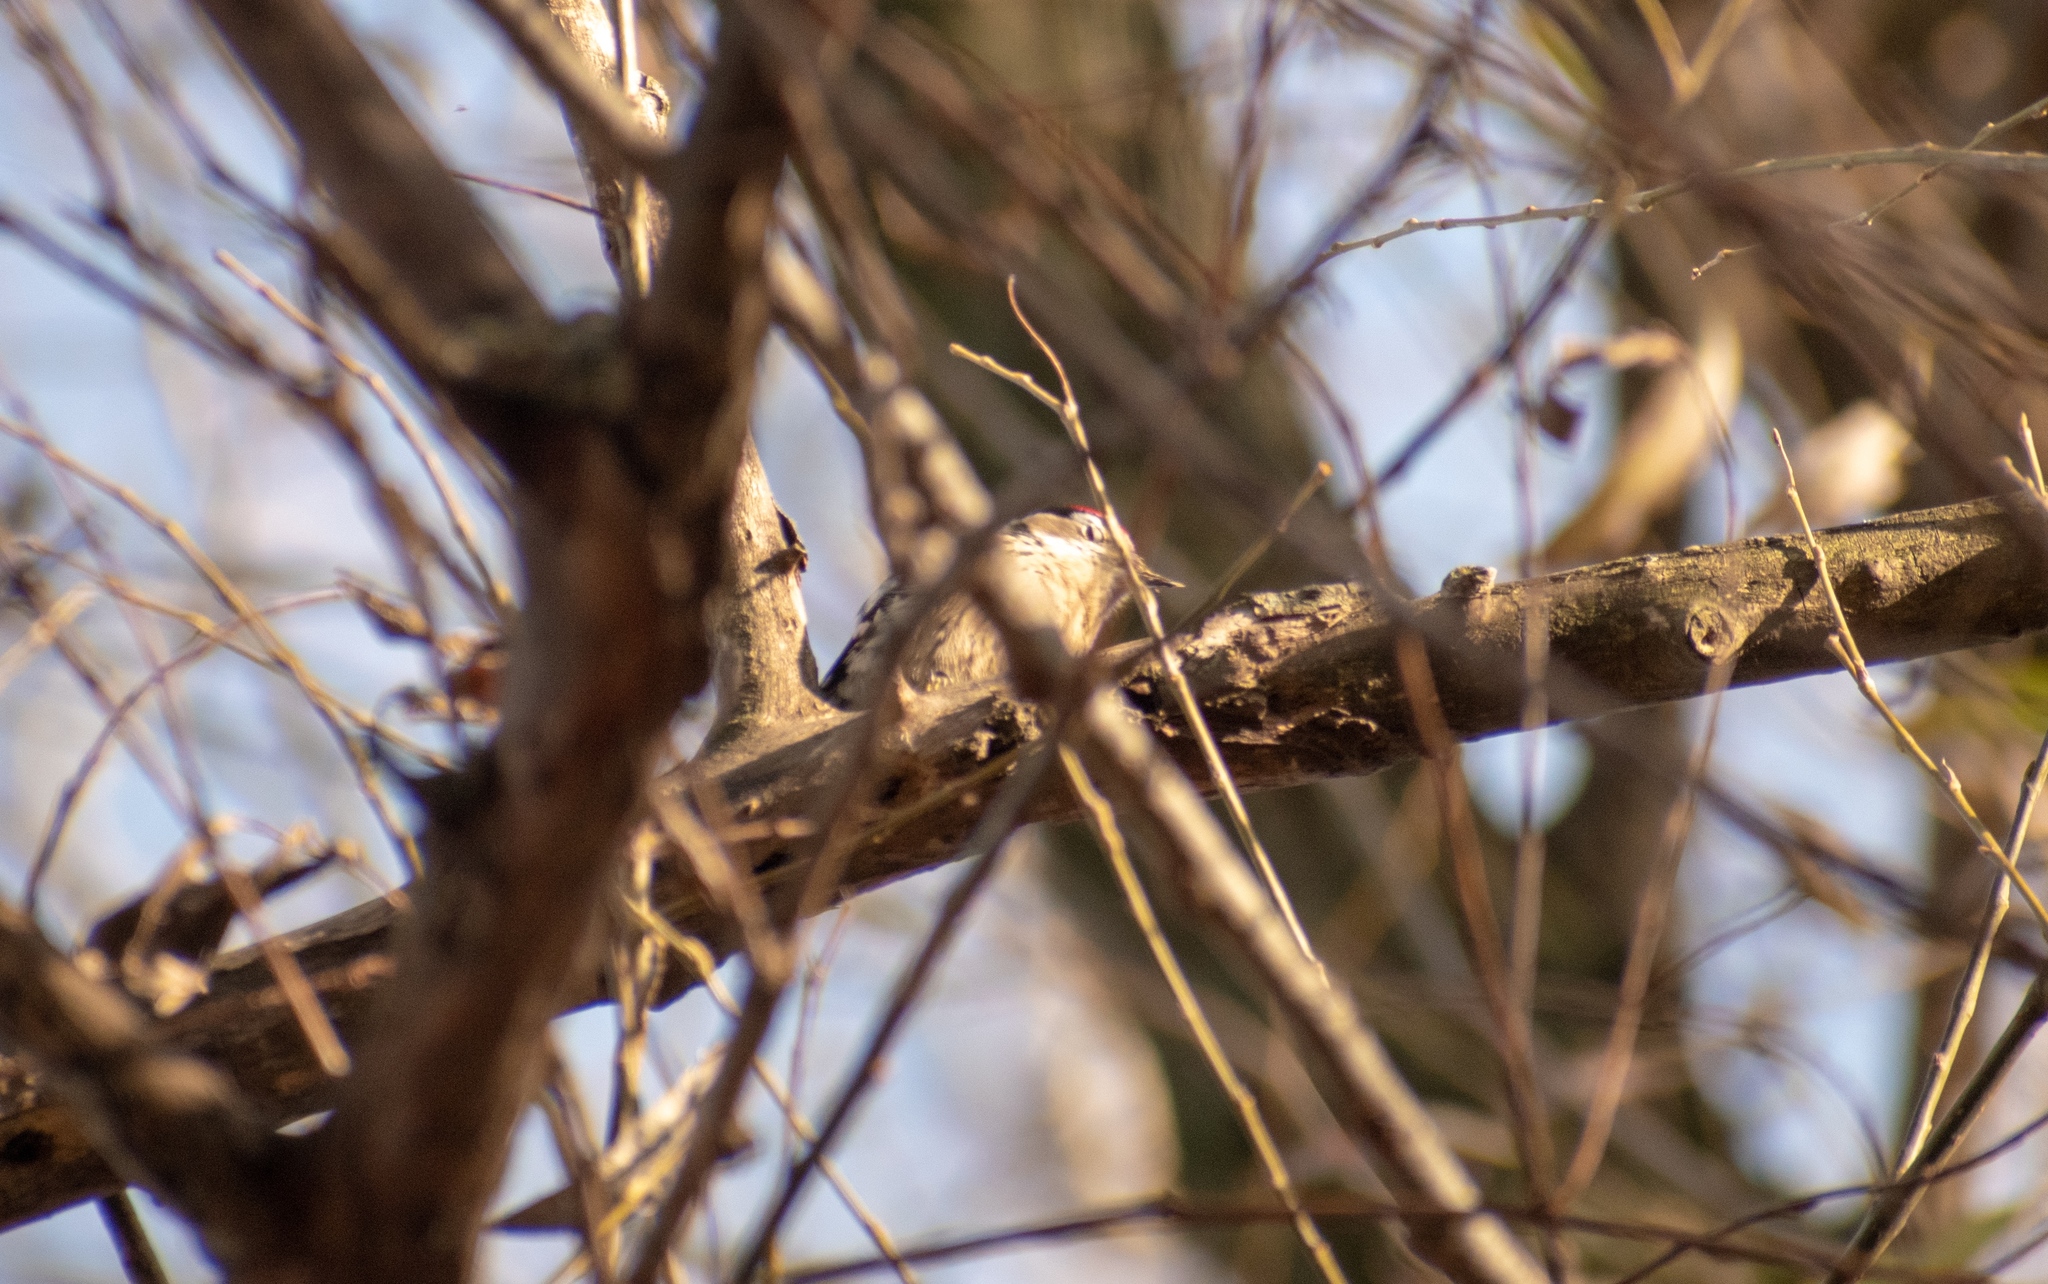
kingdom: Animalia
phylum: Chordata
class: Aves
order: Piciformes
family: Picidae
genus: Dryobates
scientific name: Dryobates minor
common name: Lesser spotted woodpecker
